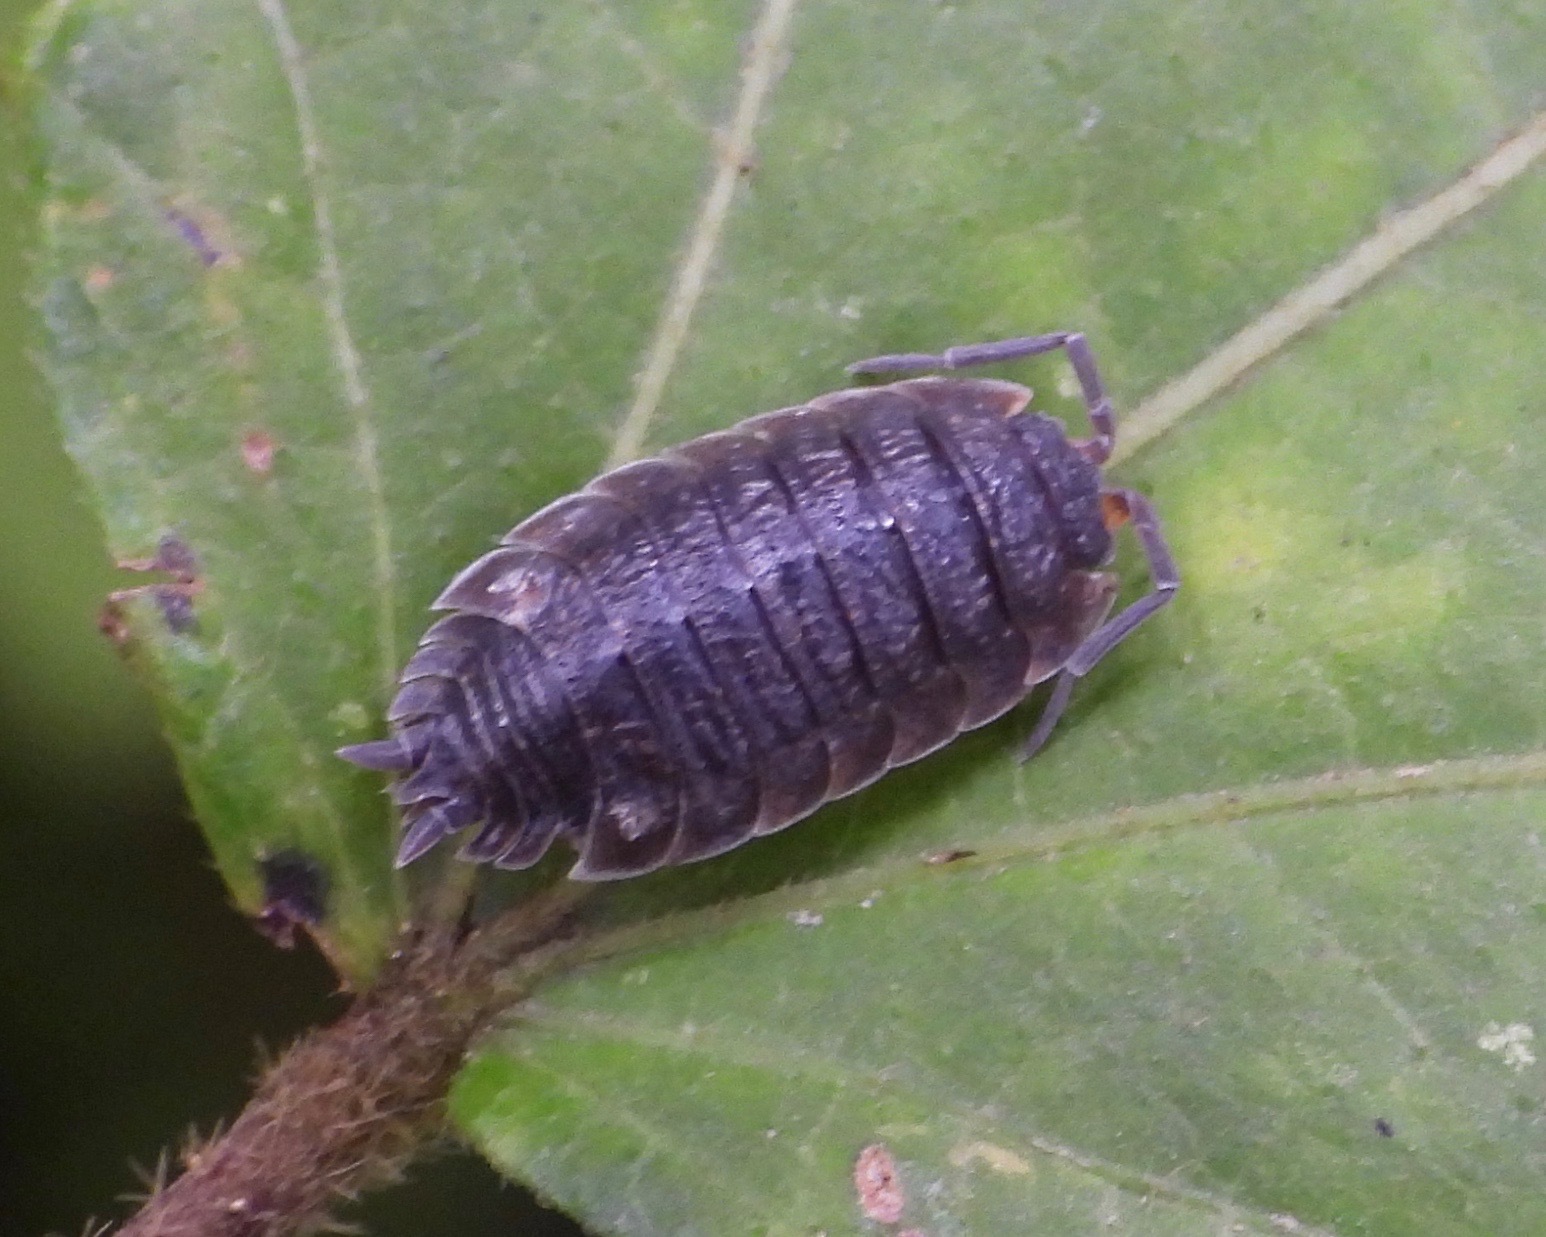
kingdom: Animalia
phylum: Arthropoda
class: Malacostraca
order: Isopoda
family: Porcellionidae
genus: Porcellio
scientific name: Porcellio scaber
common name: Common rough woodlouse
